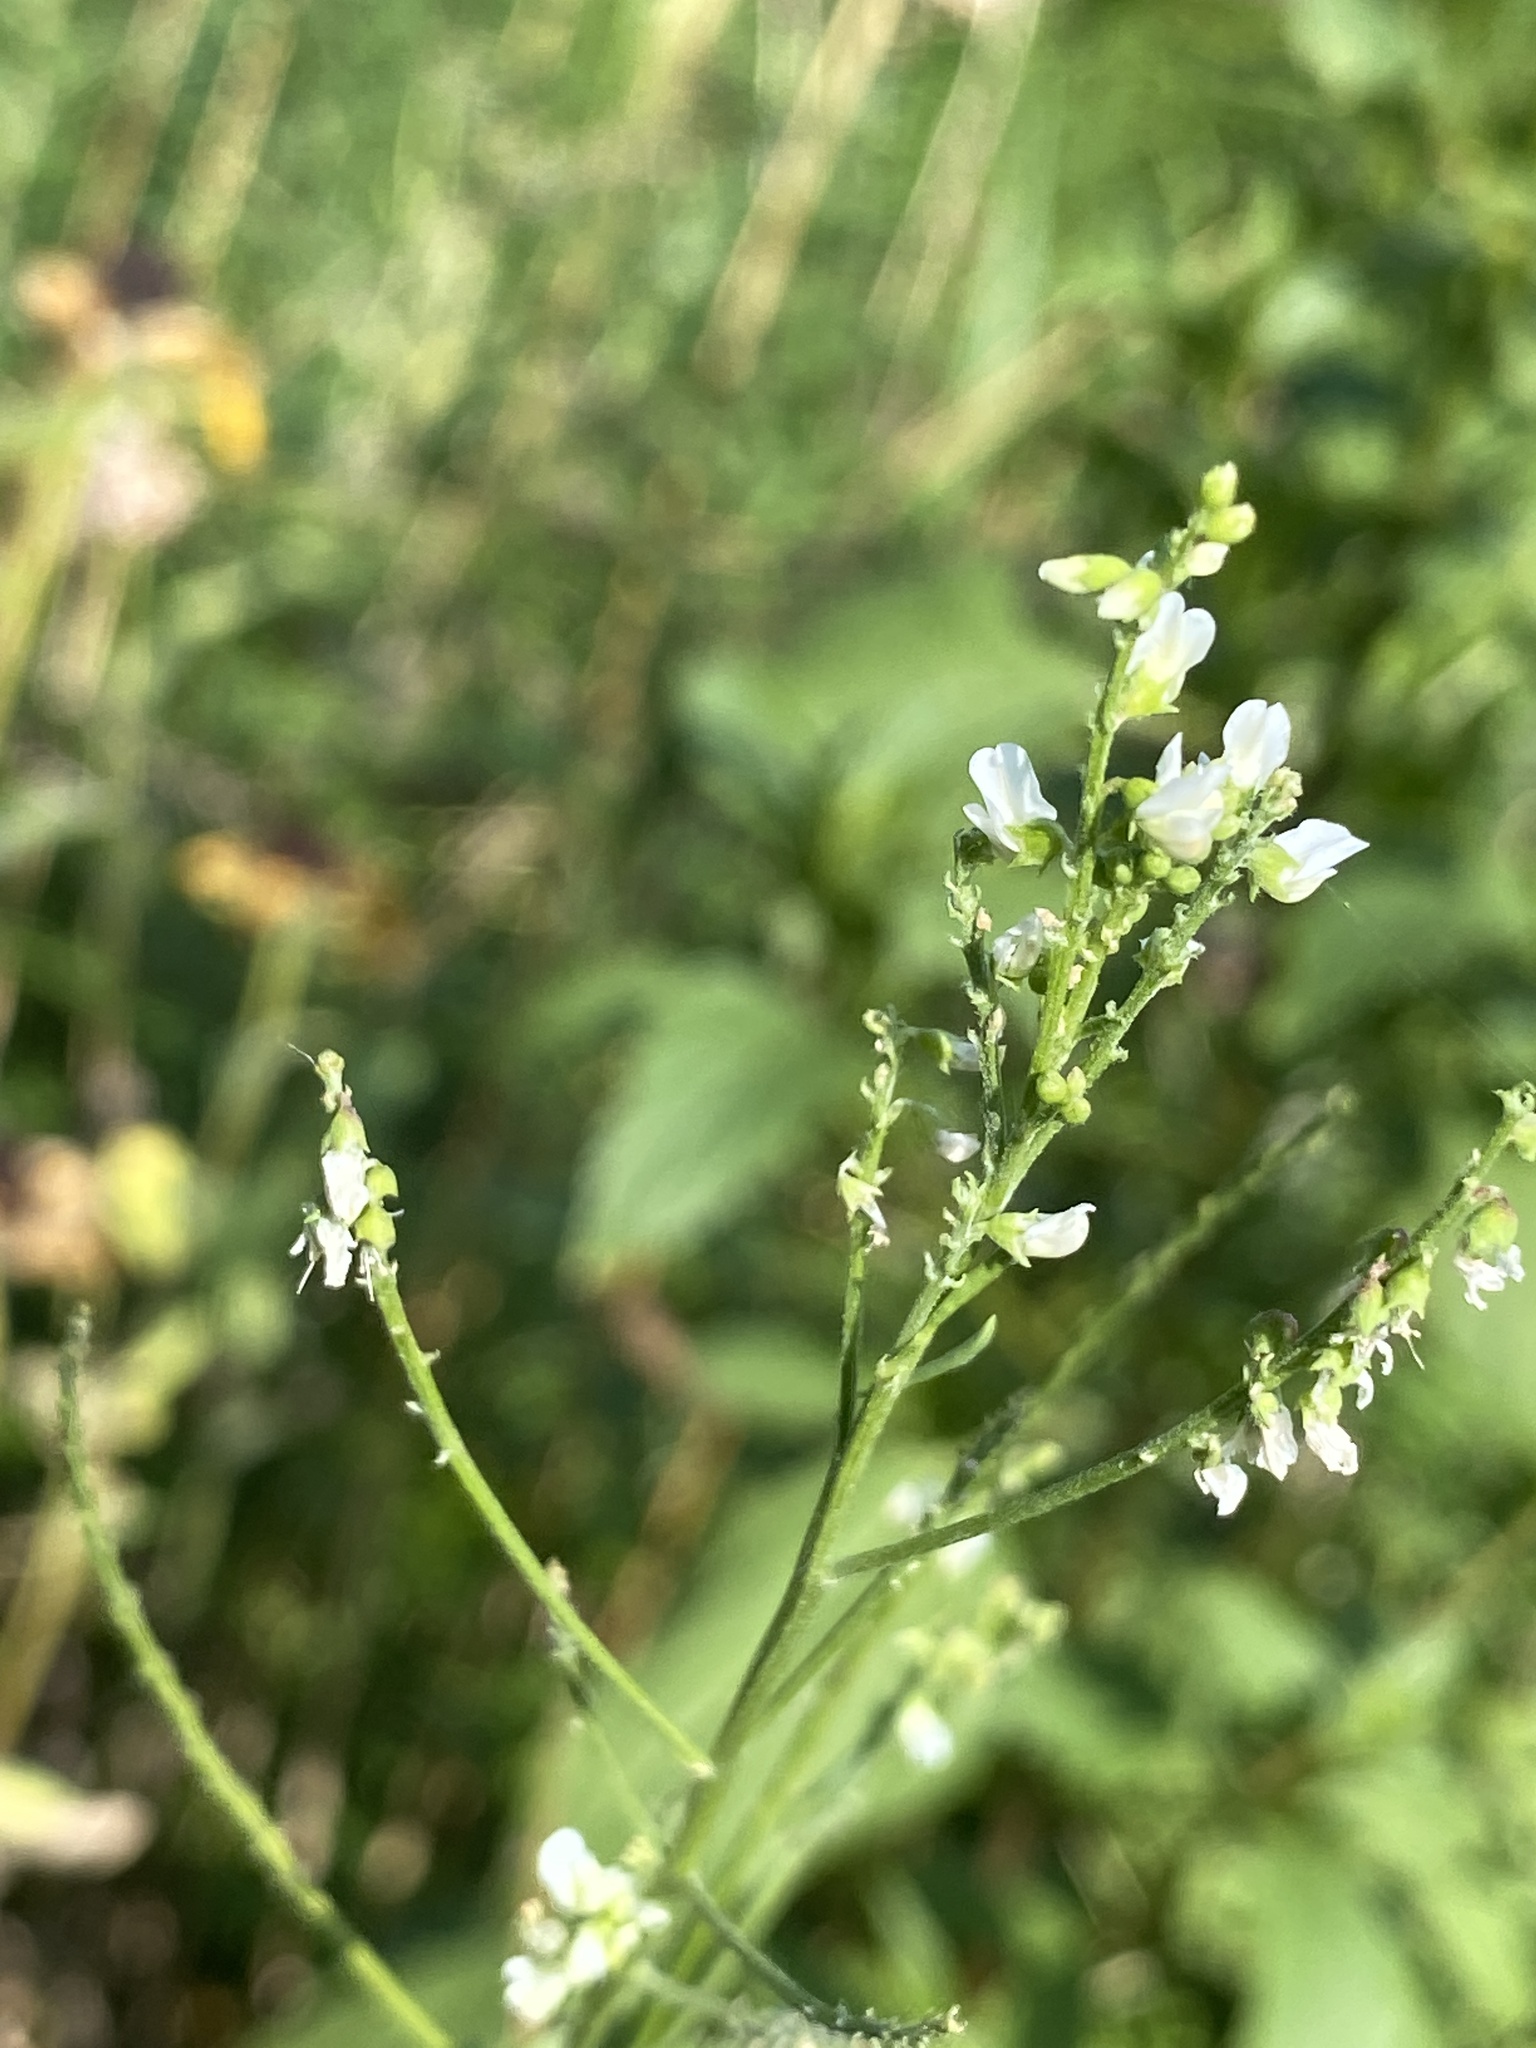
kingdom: Plantae
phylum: Tracheophyta
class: Magnoliopsida
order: Fabales
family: Fabaceae
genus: Melilotus
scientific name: Melilotus albus
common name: White melilot
